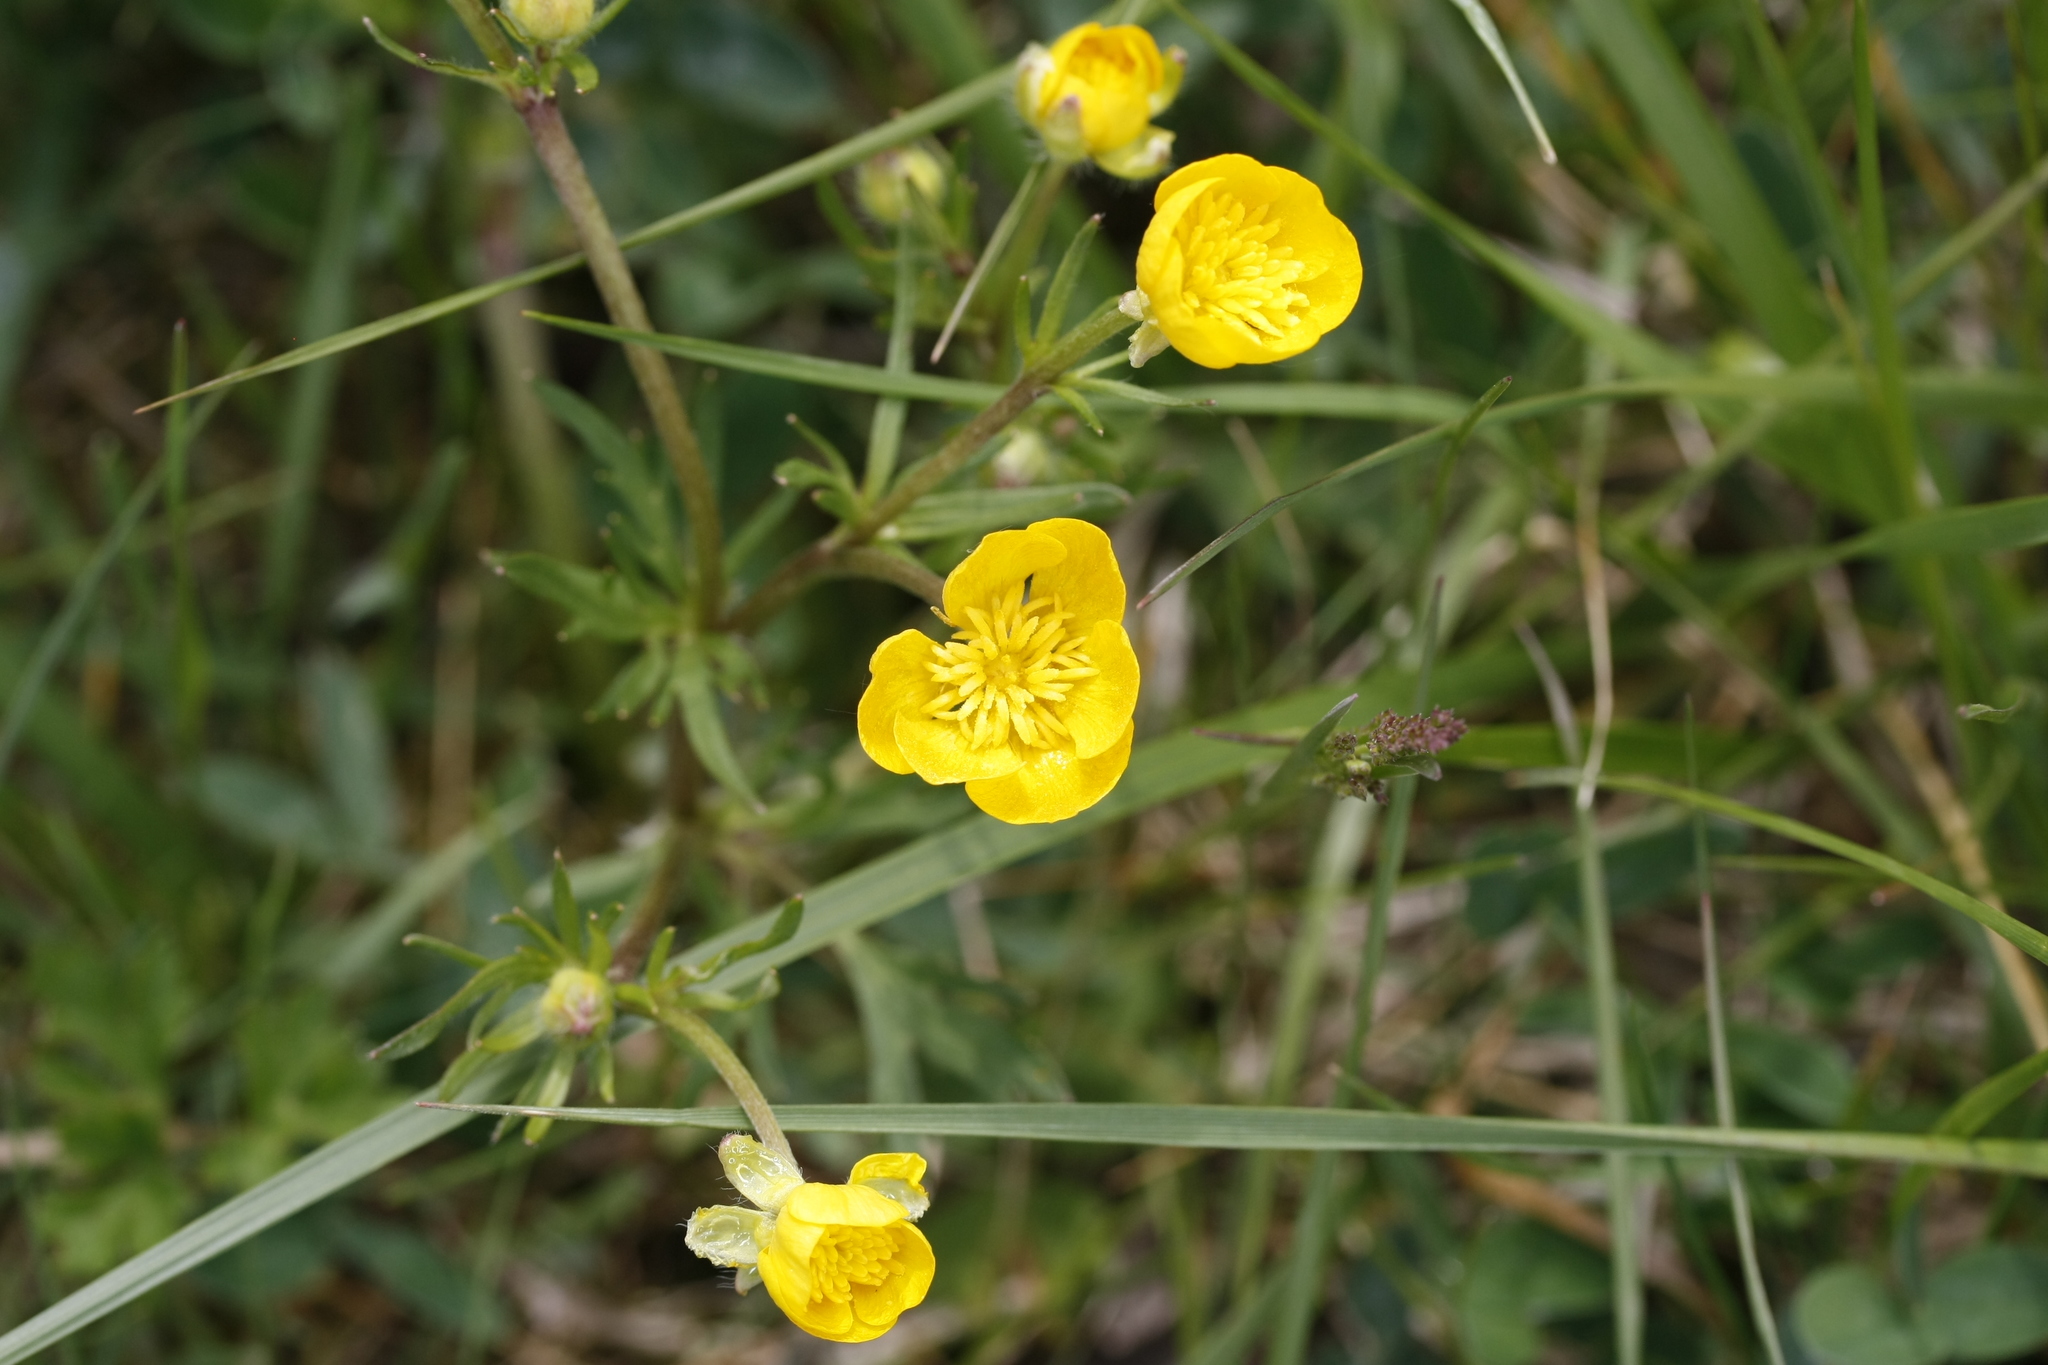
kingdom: Plantae
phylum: Tracheophyta
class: Magnoliopsida
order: Ranunculales
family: Ranunculaceae
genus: Ranunculus
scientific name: Ranunculus bulbosus
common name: Bulbous buttercup
